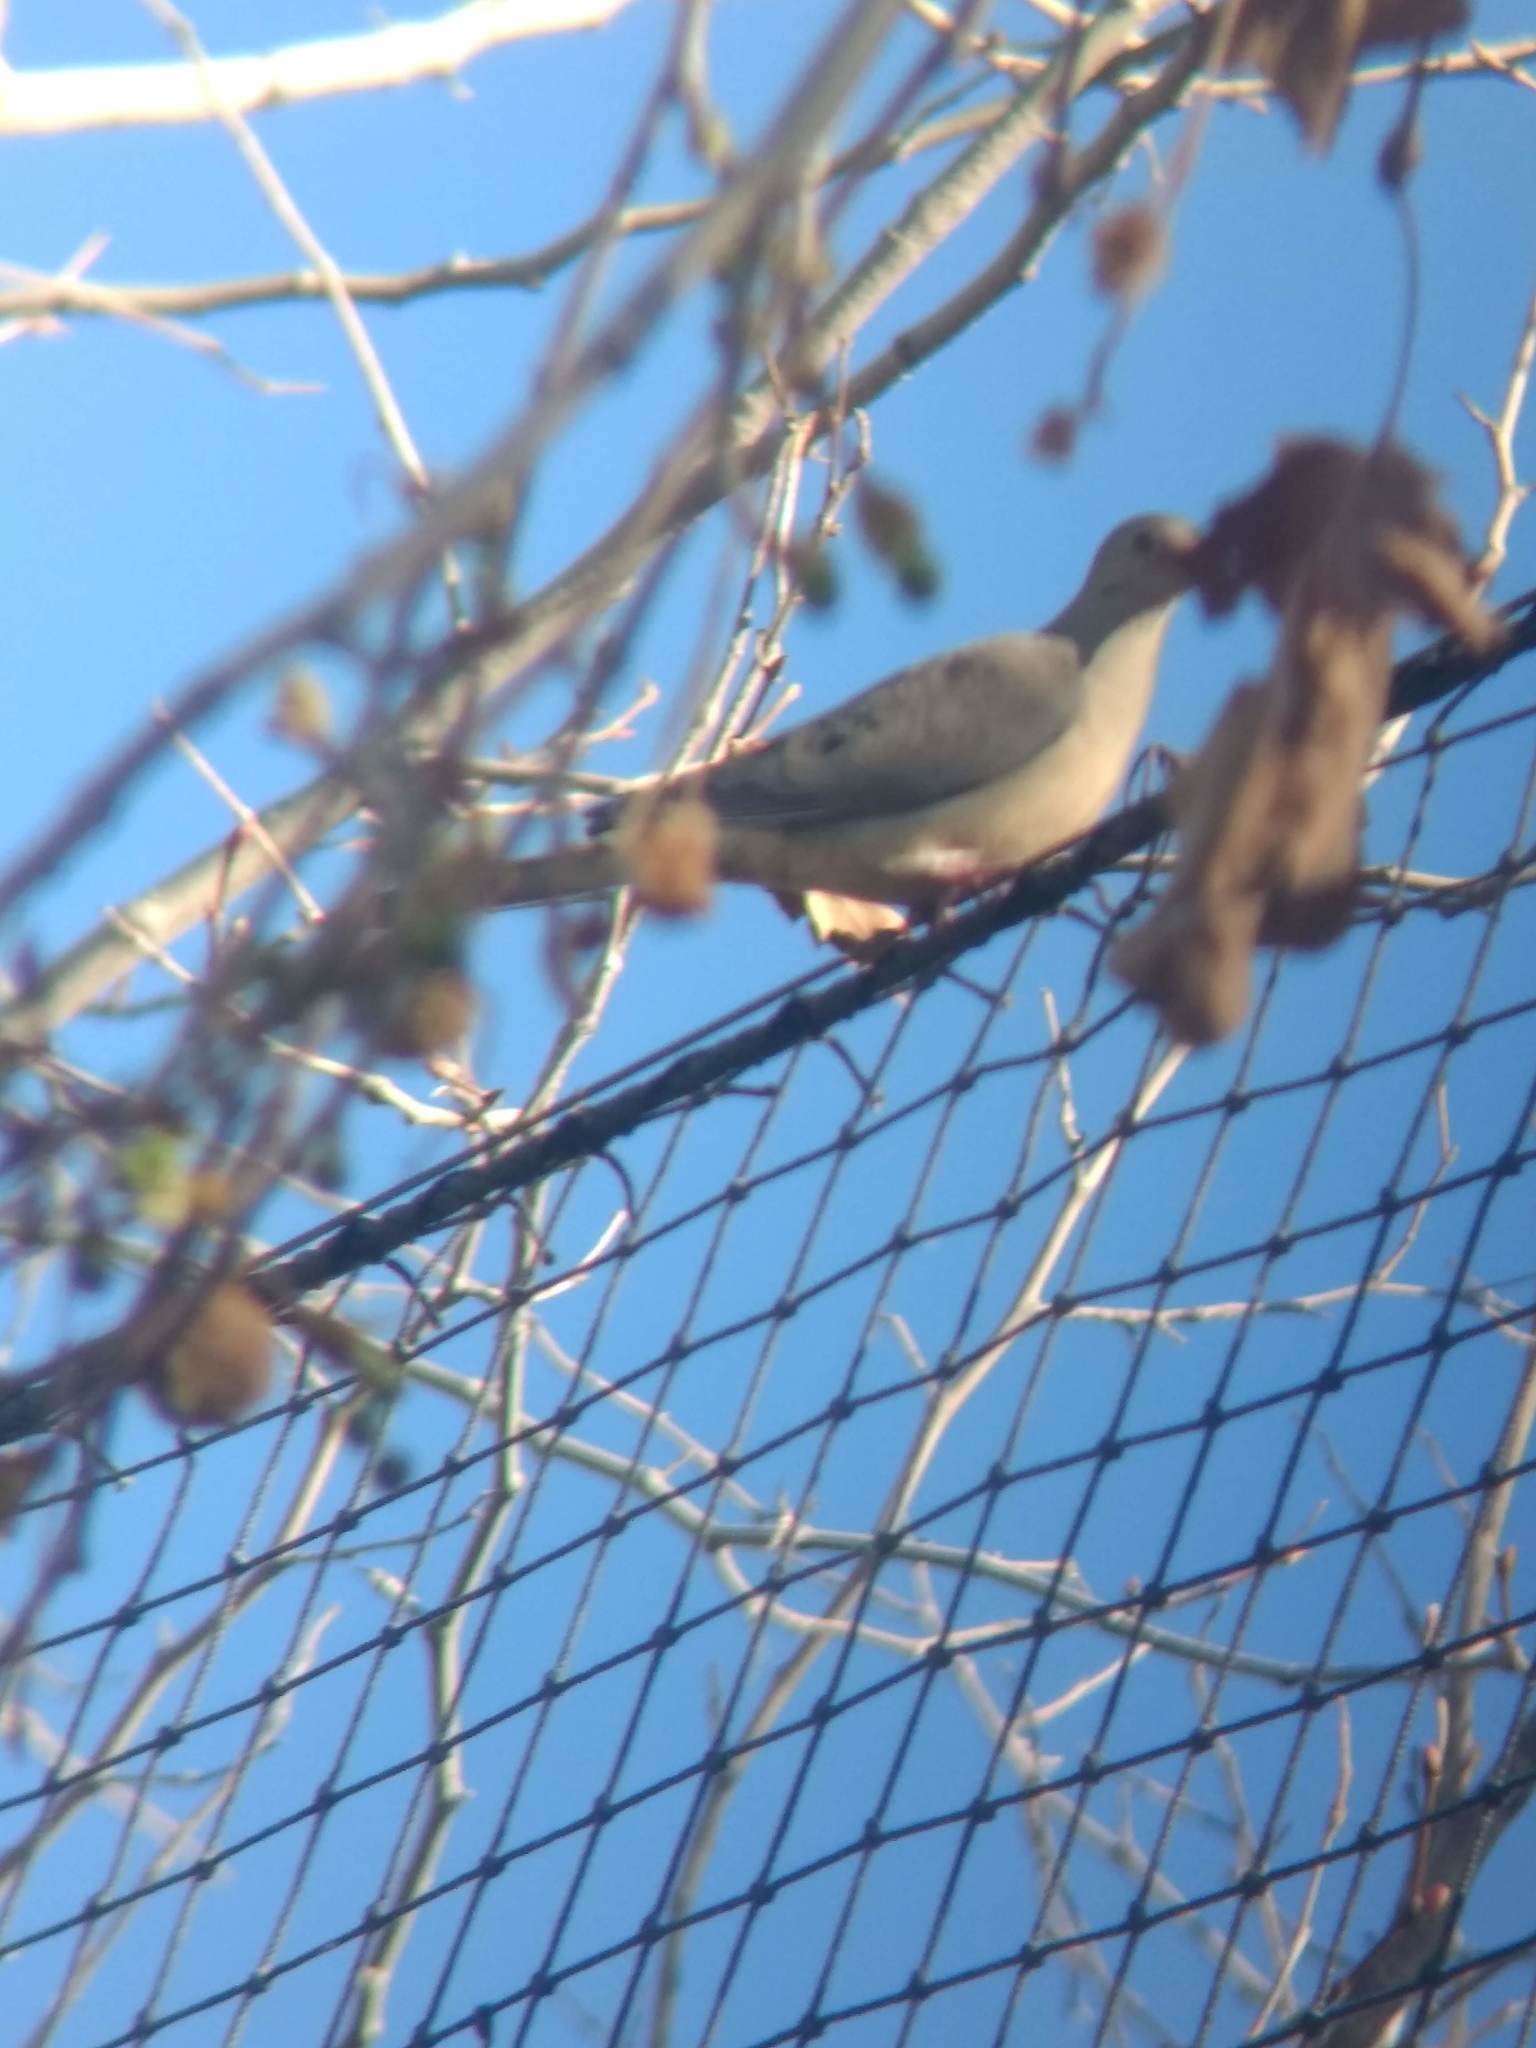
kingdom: Animalia
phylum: Chordata
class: Aves
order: Columbiformes
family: Columbidae
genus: Zenaida
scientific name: Zenaida macroura
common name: Mourning dove
